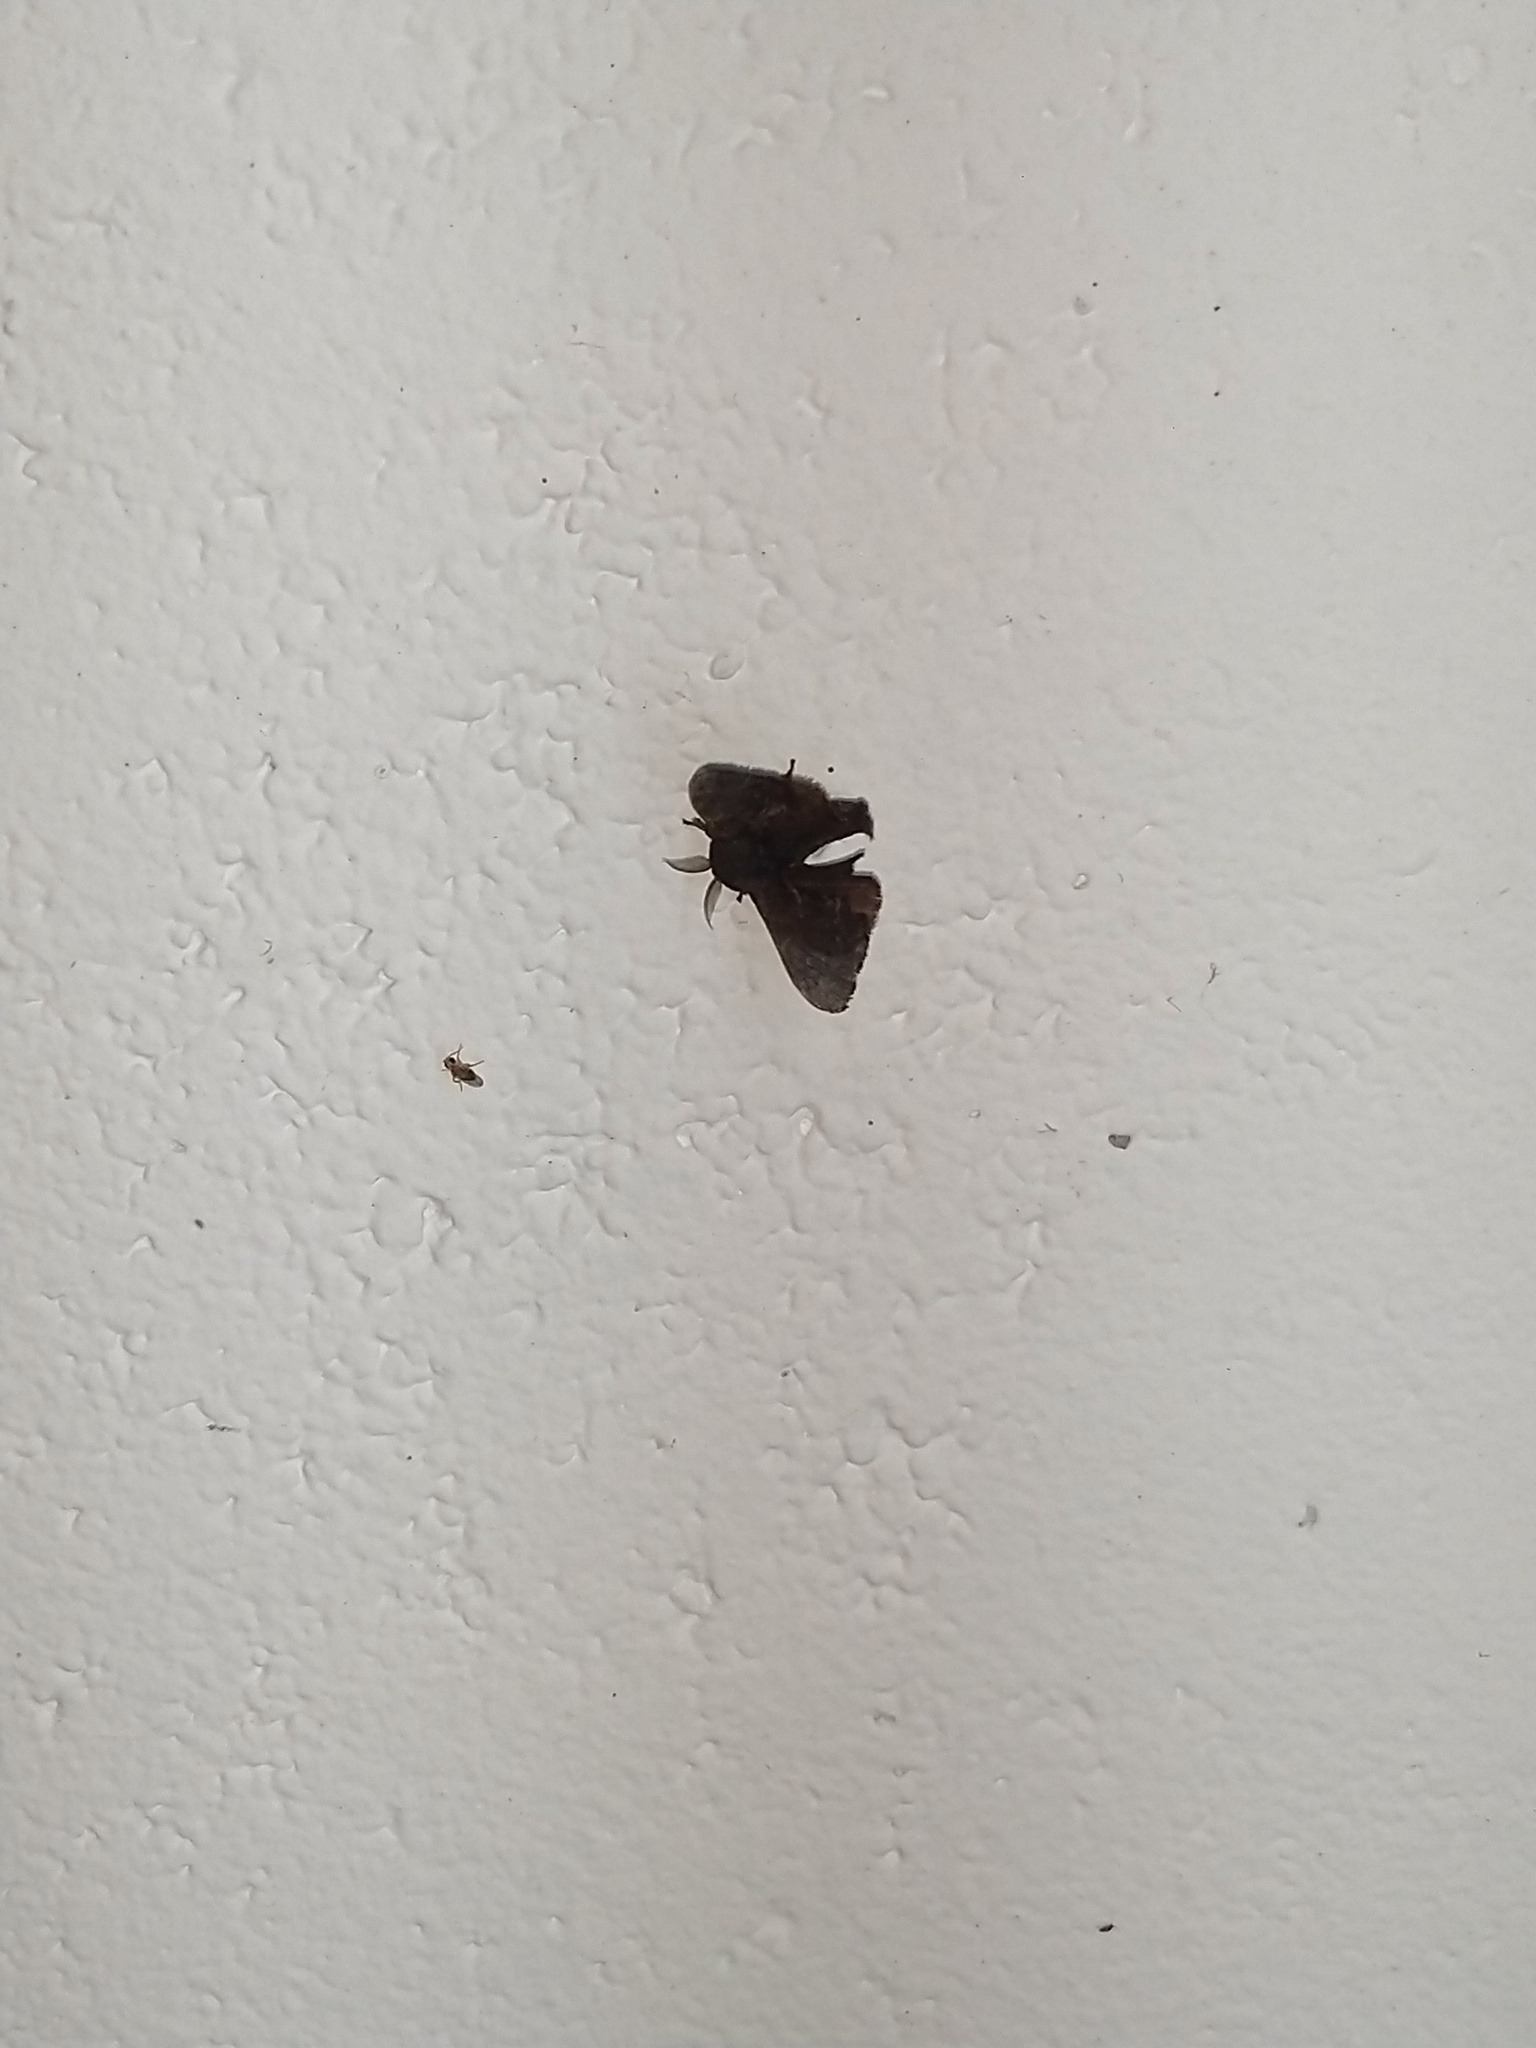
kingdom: Animalia
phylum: Arthropoda
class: Insecta
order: Lepidoptera
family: Bombycidae
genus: Trilocha
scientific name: Trilocha varians
